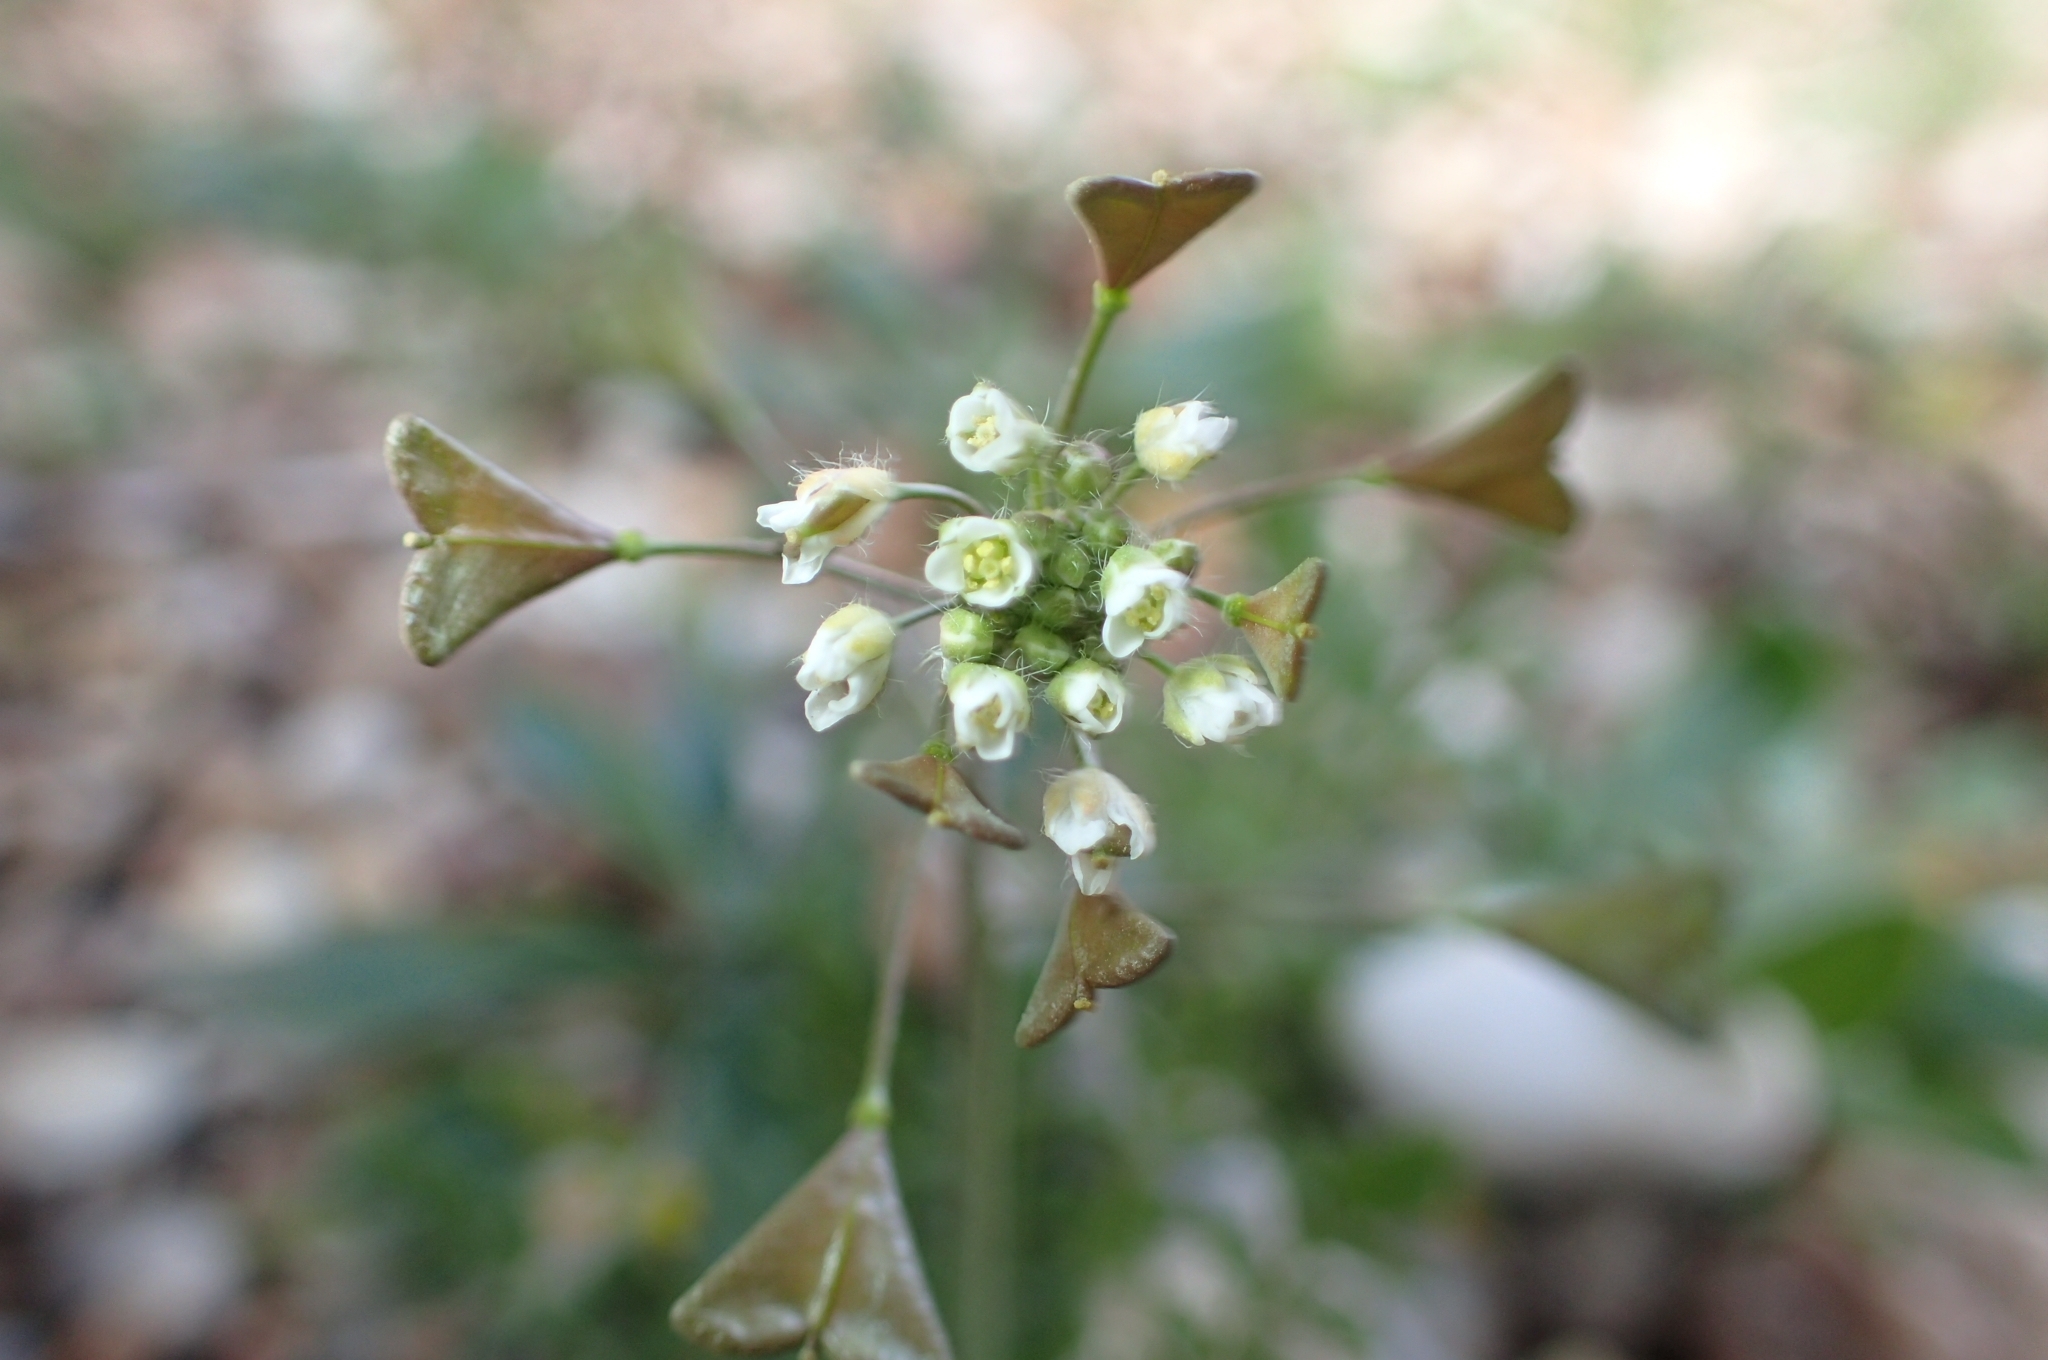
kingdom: Plantae
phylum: Tracheophyta
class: Magnoliopsida
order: Brassicales
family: Brassicaceae
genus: Capsella
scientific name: Capsella bursa-pastoris
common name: Shepherd's purse
